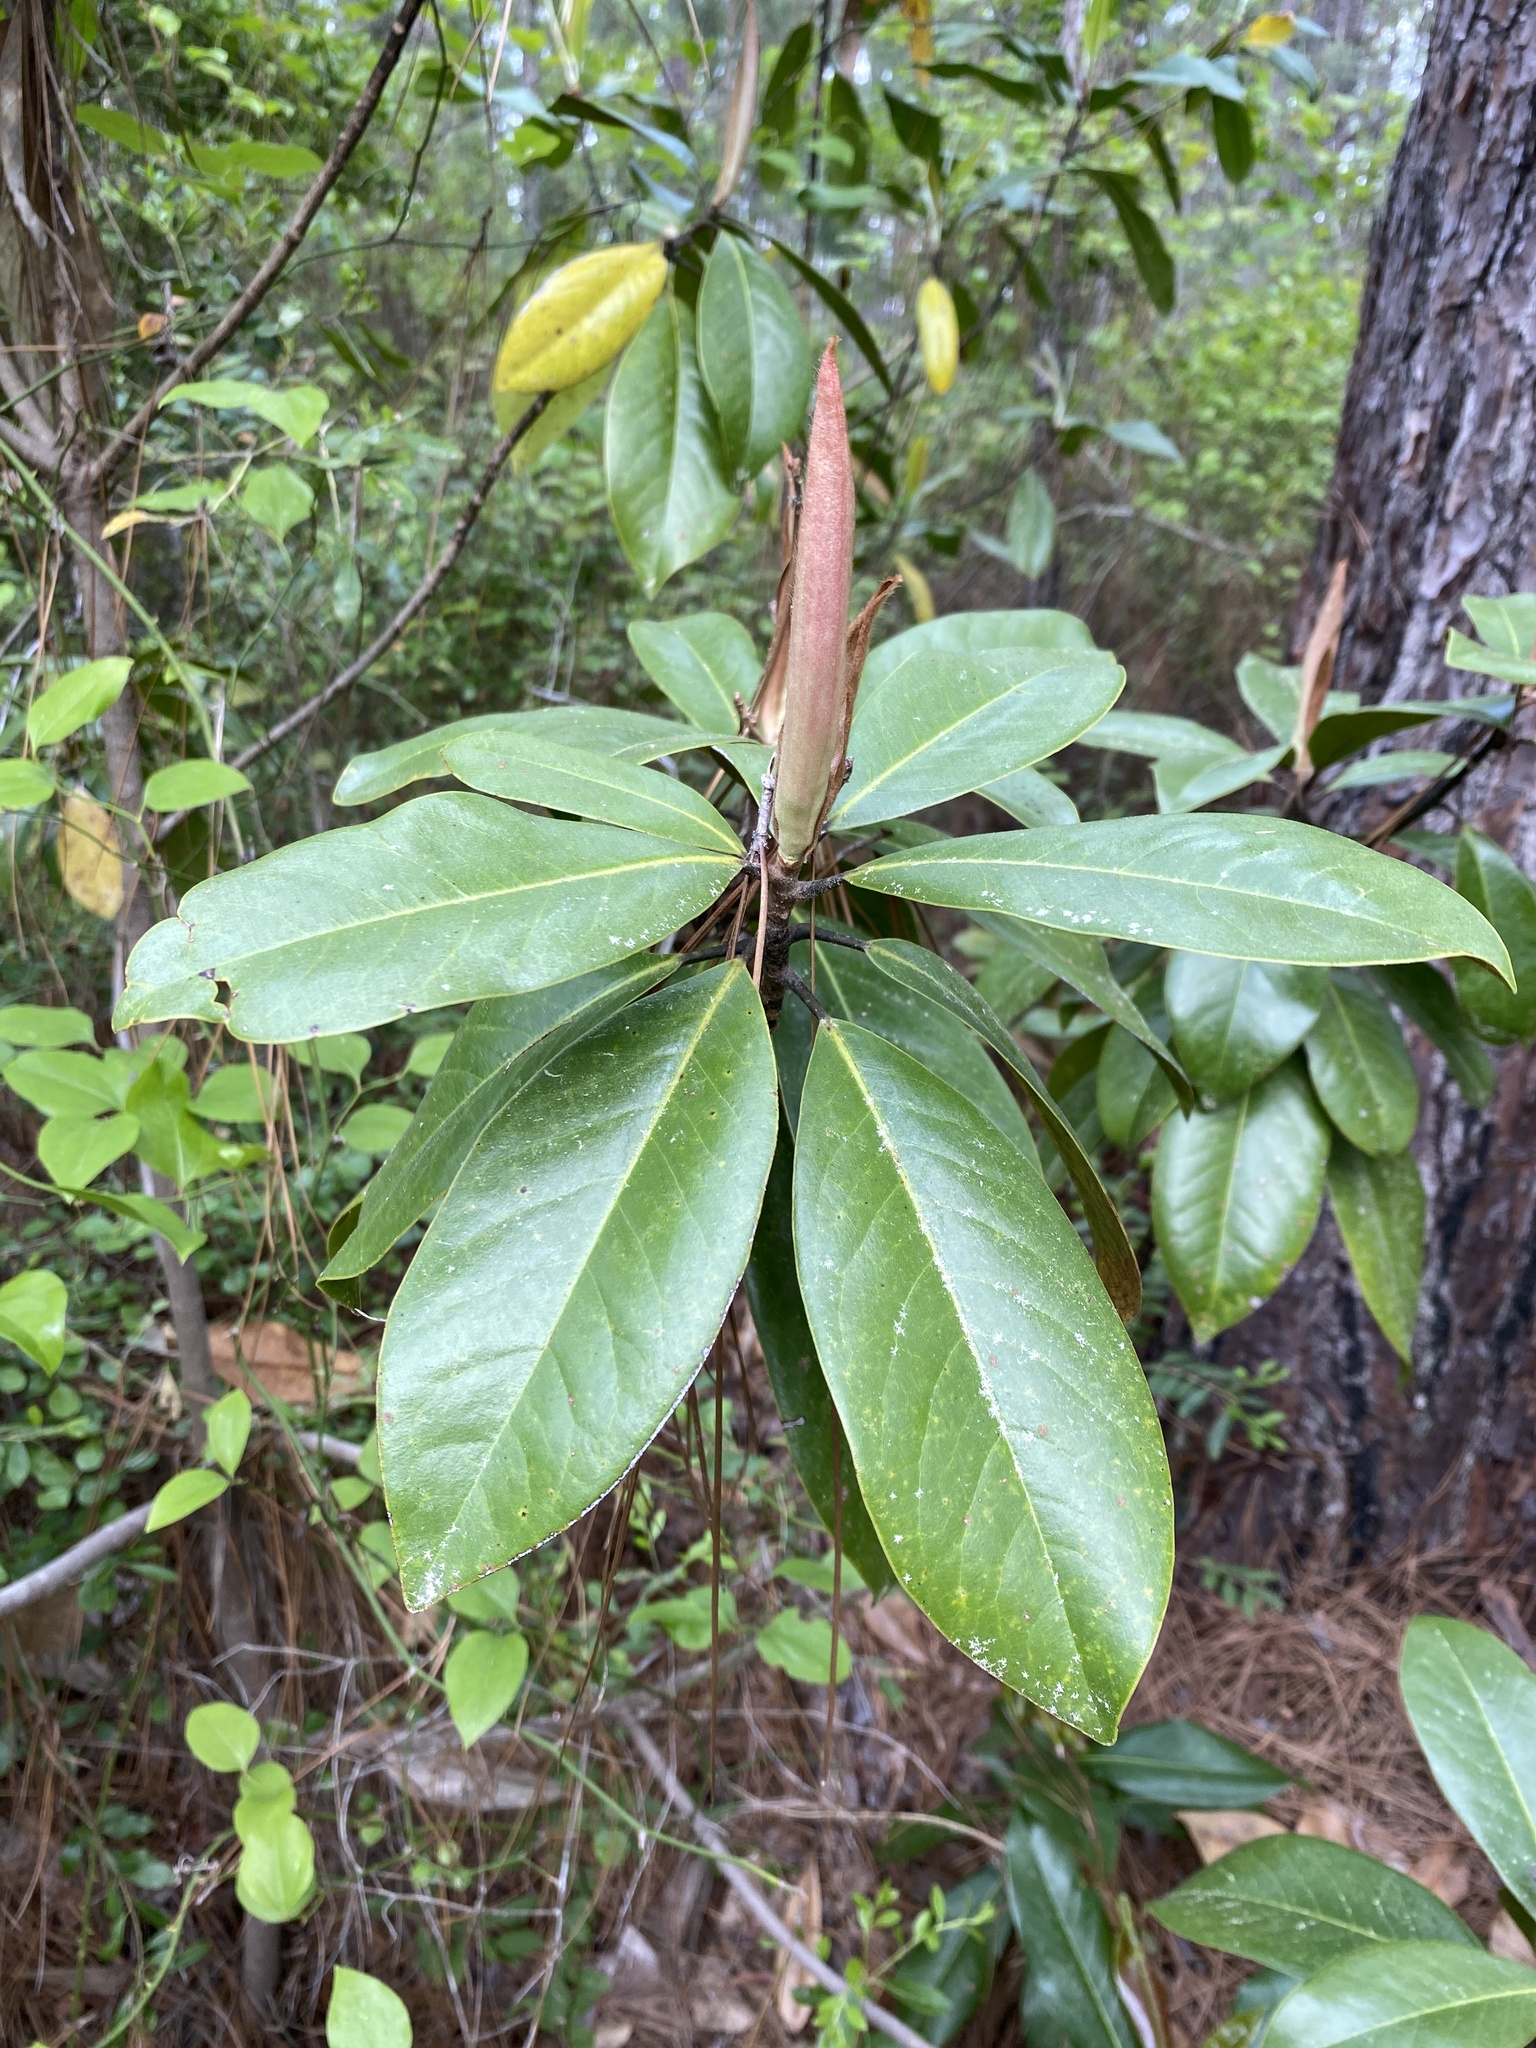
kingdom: Plantae
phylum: Tracheophyta
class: Magnoliopsida
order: Magnoliales
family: Magnoliaceae
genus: Magnolia
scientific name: Magnolia grandiflora
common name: Southern magnolia
